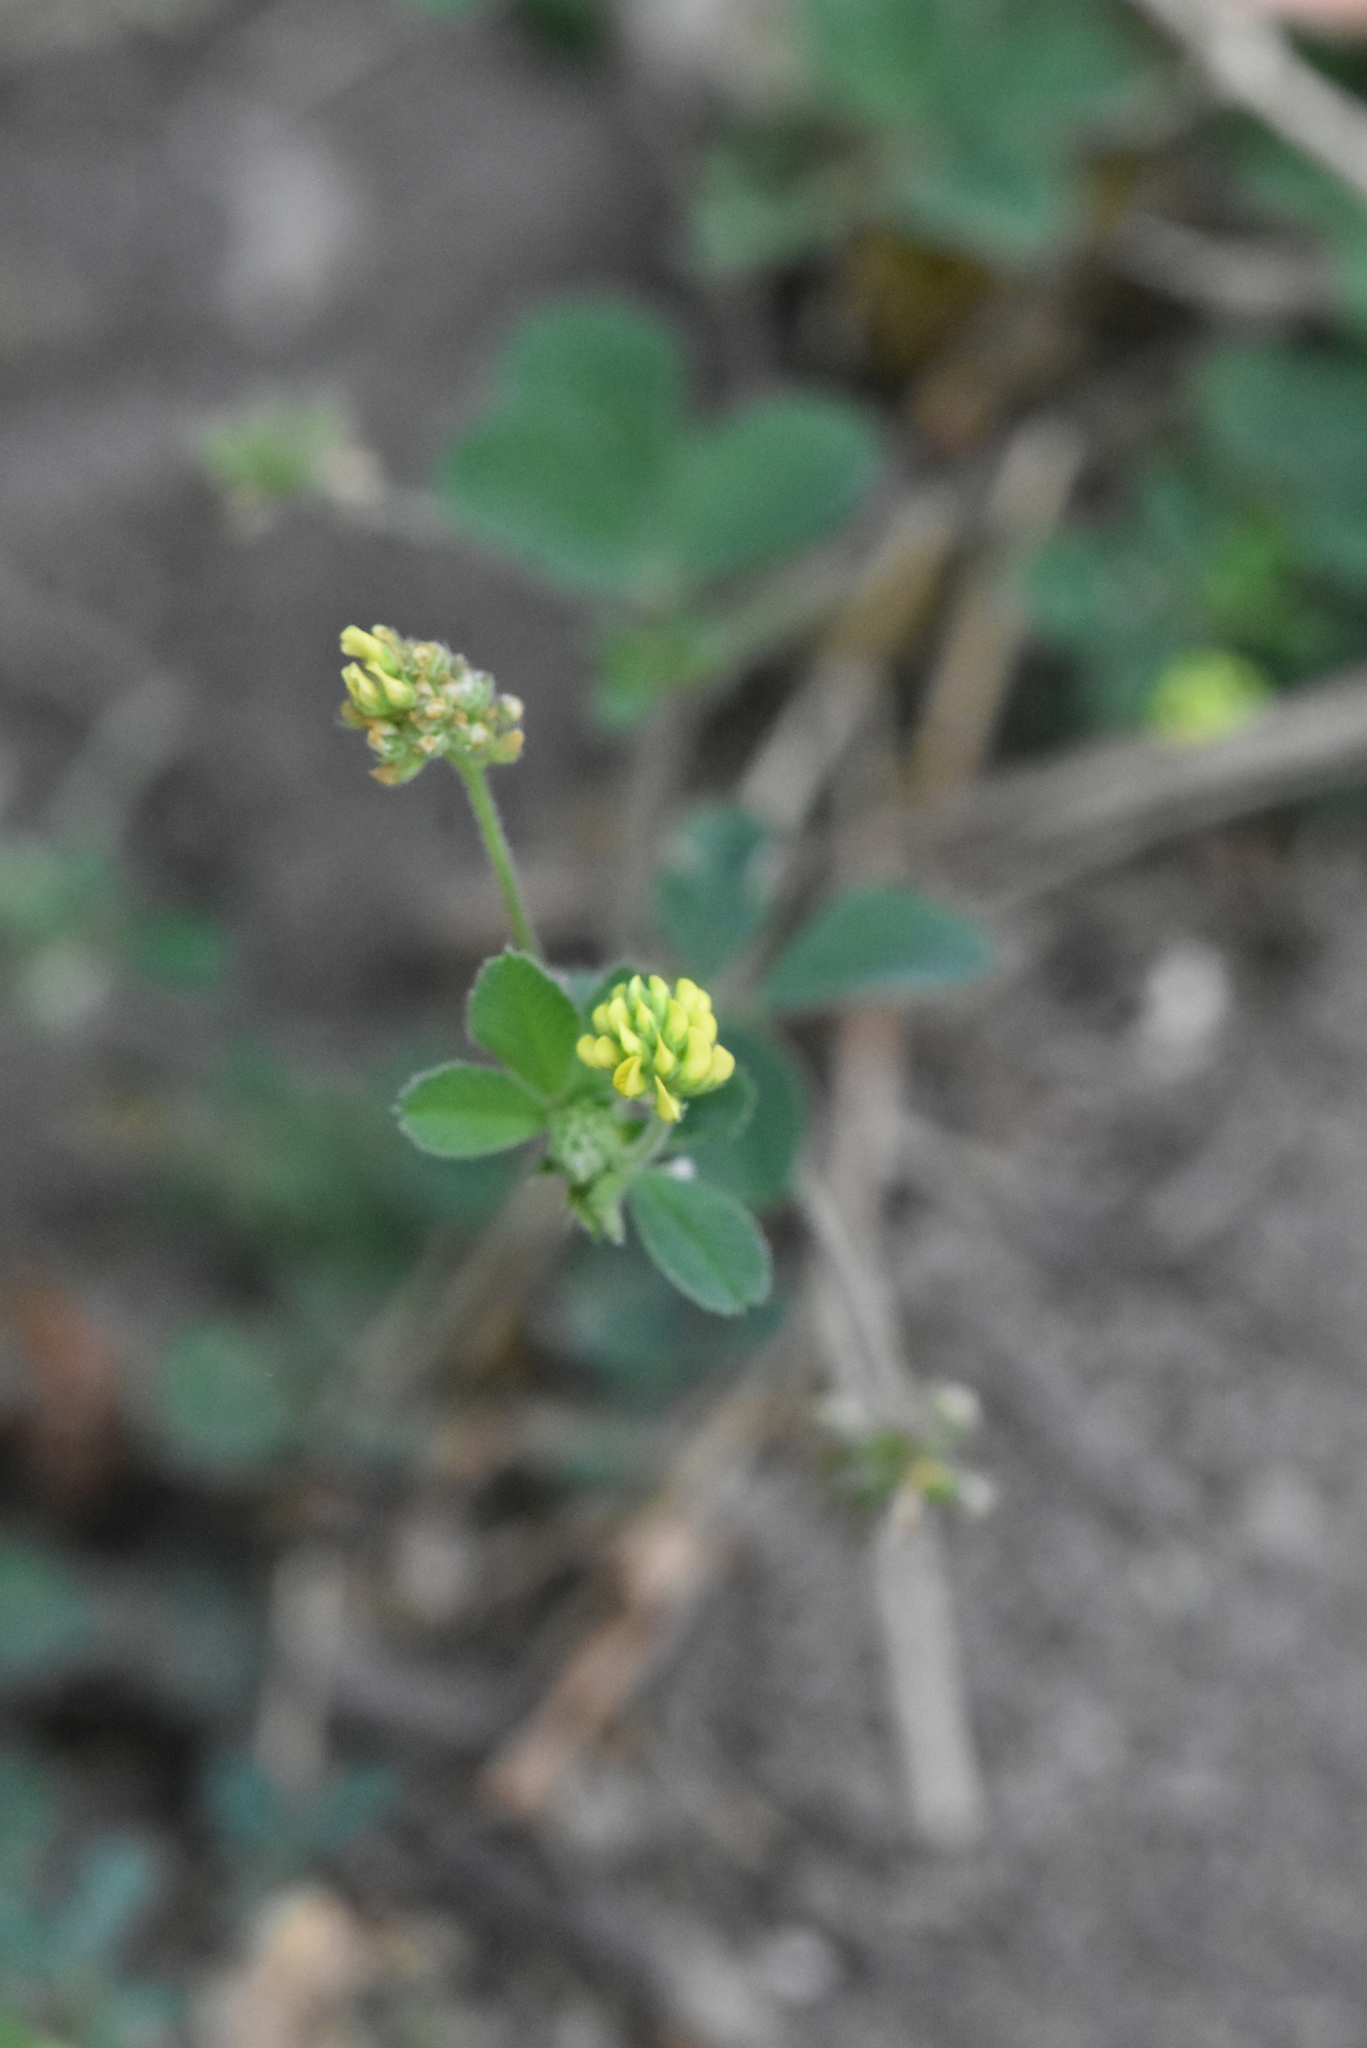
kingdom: Plantae
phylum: Tracheophyta
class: Magnoliopsida
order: Fabales
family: Fabaceae
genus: Medicago
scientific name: Medicago lupulina
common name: Black medick
